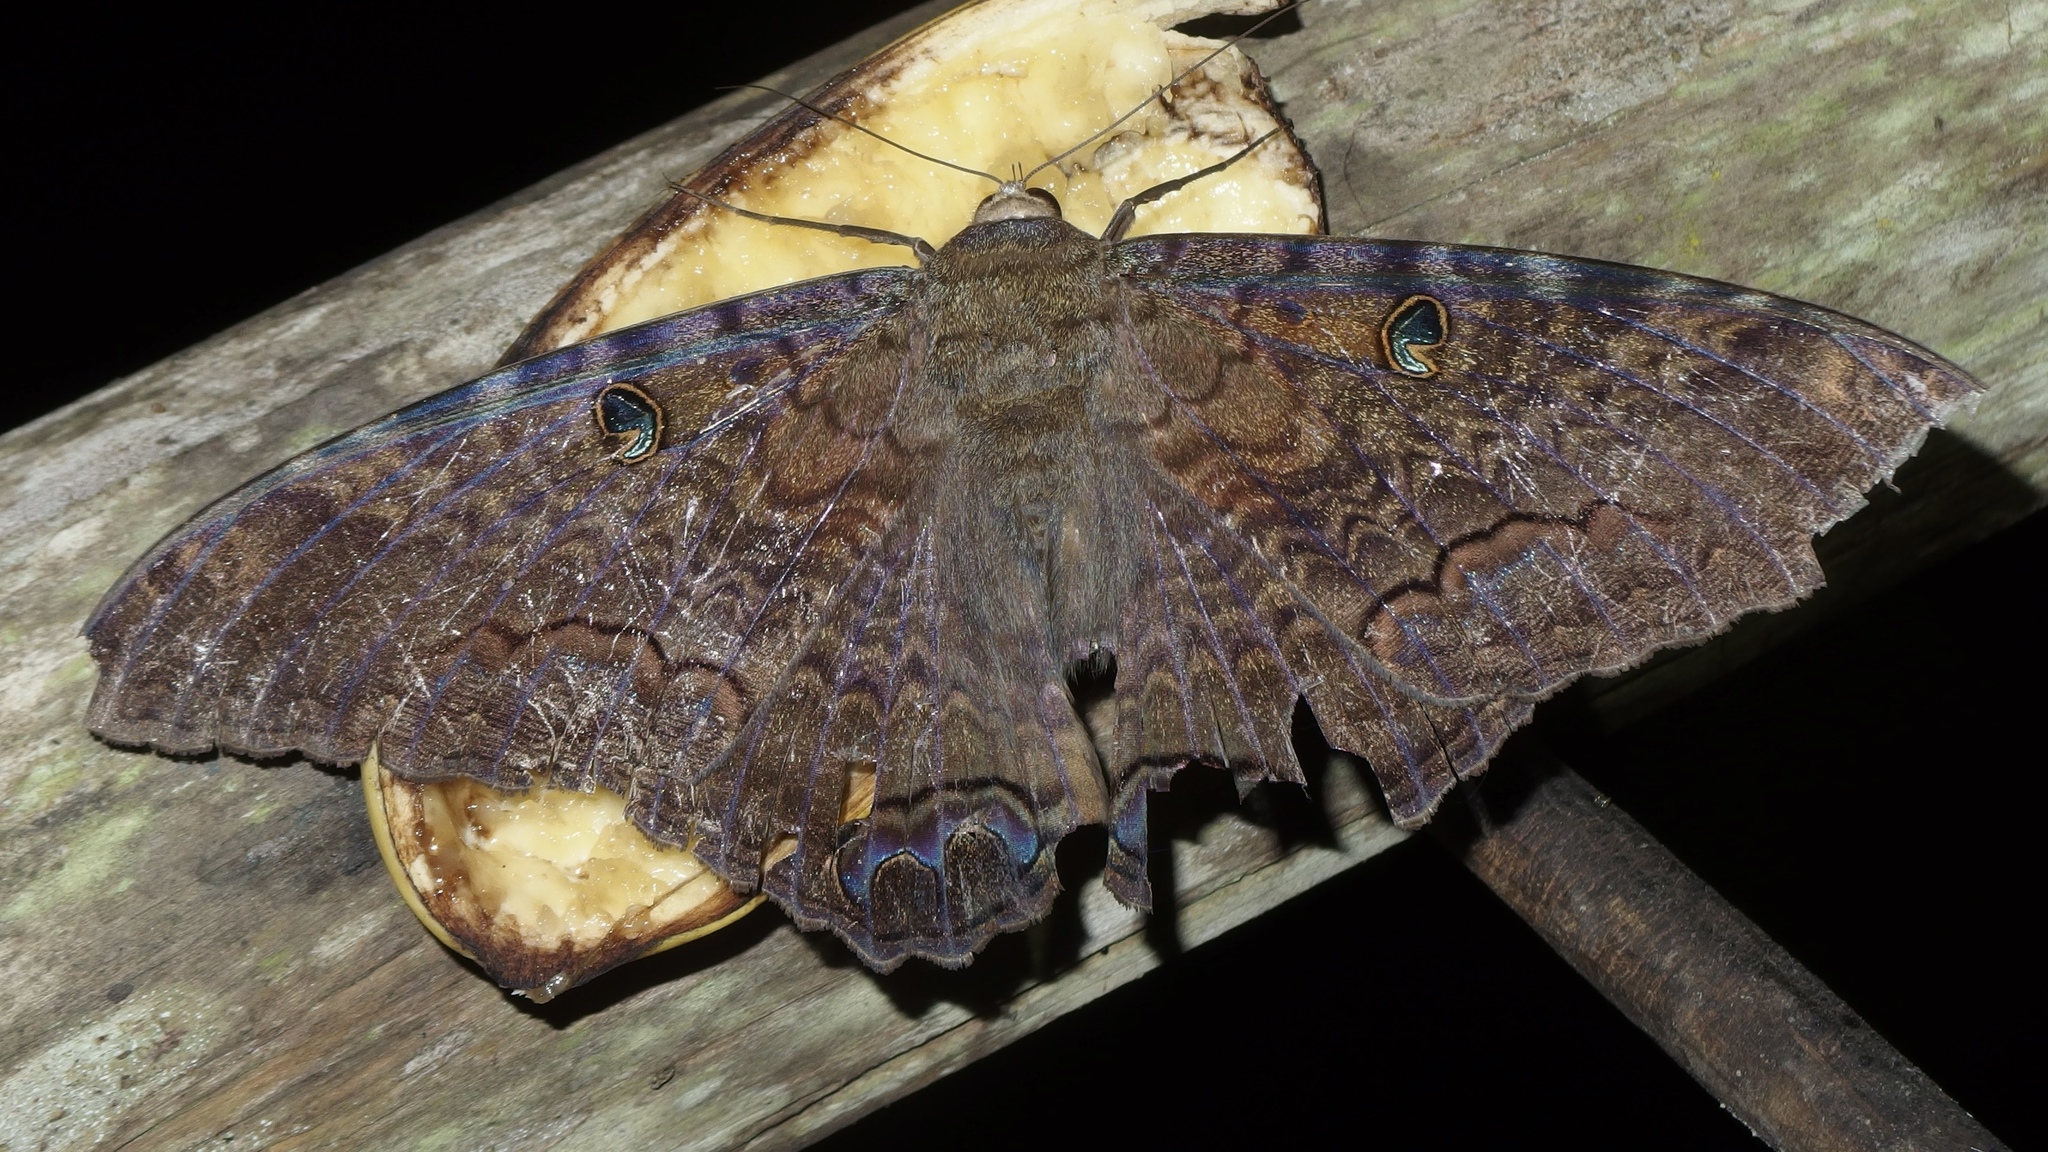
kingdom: Animalia
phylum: Arthropoda
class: Insecta
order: Lepidoptera
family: Erebidae
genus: Ascalapha
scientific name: Ascalapha odorata
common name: Black witch
